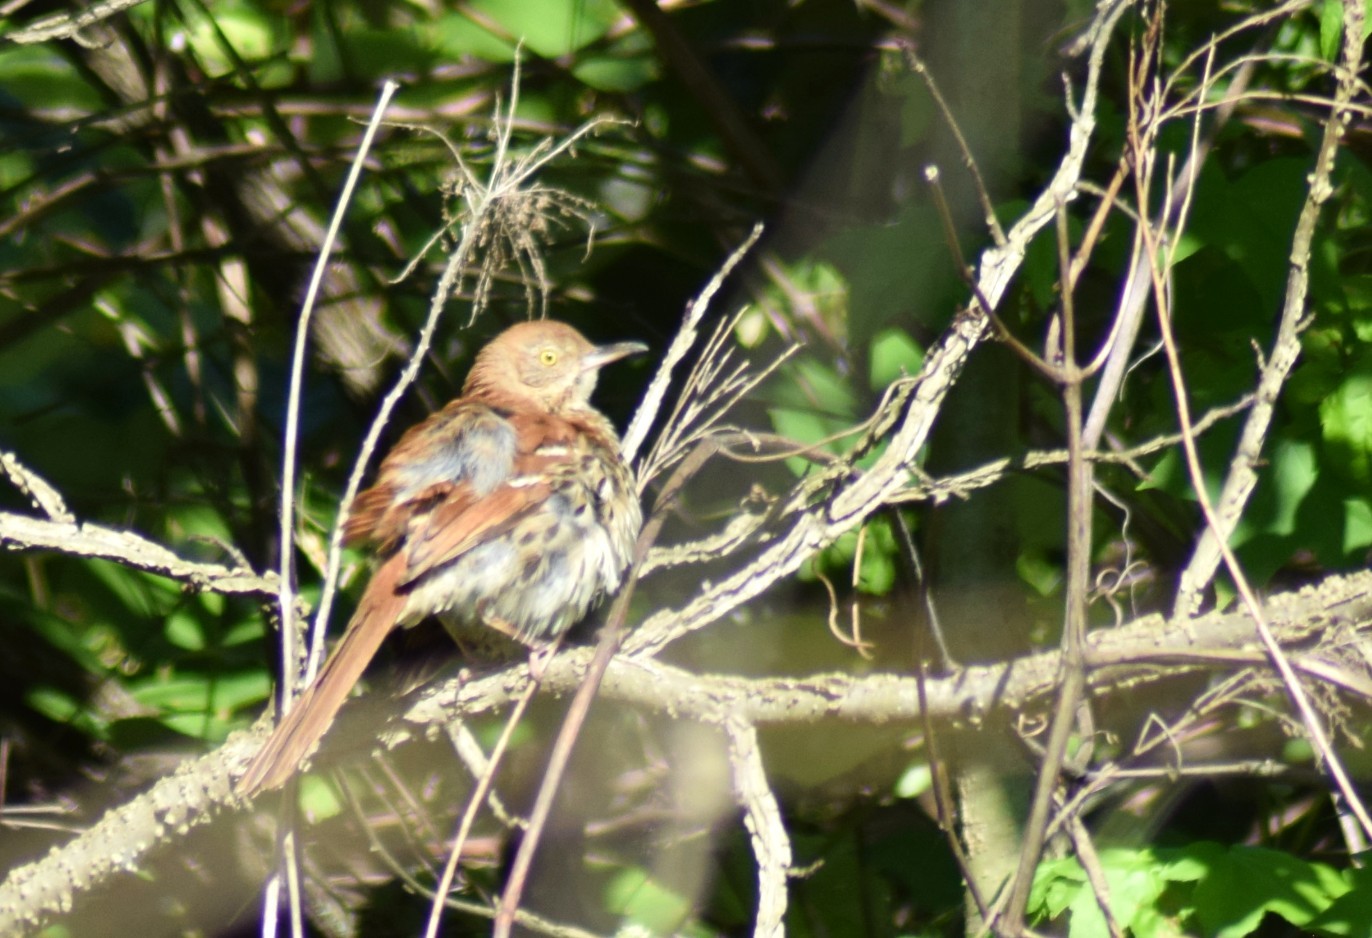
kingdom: Animalia
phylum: Chordata
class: Aves
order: Passeriformes
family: Mimidae
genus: Toxostoma
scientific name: Toxostoma rufum
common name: Brown thrasher
